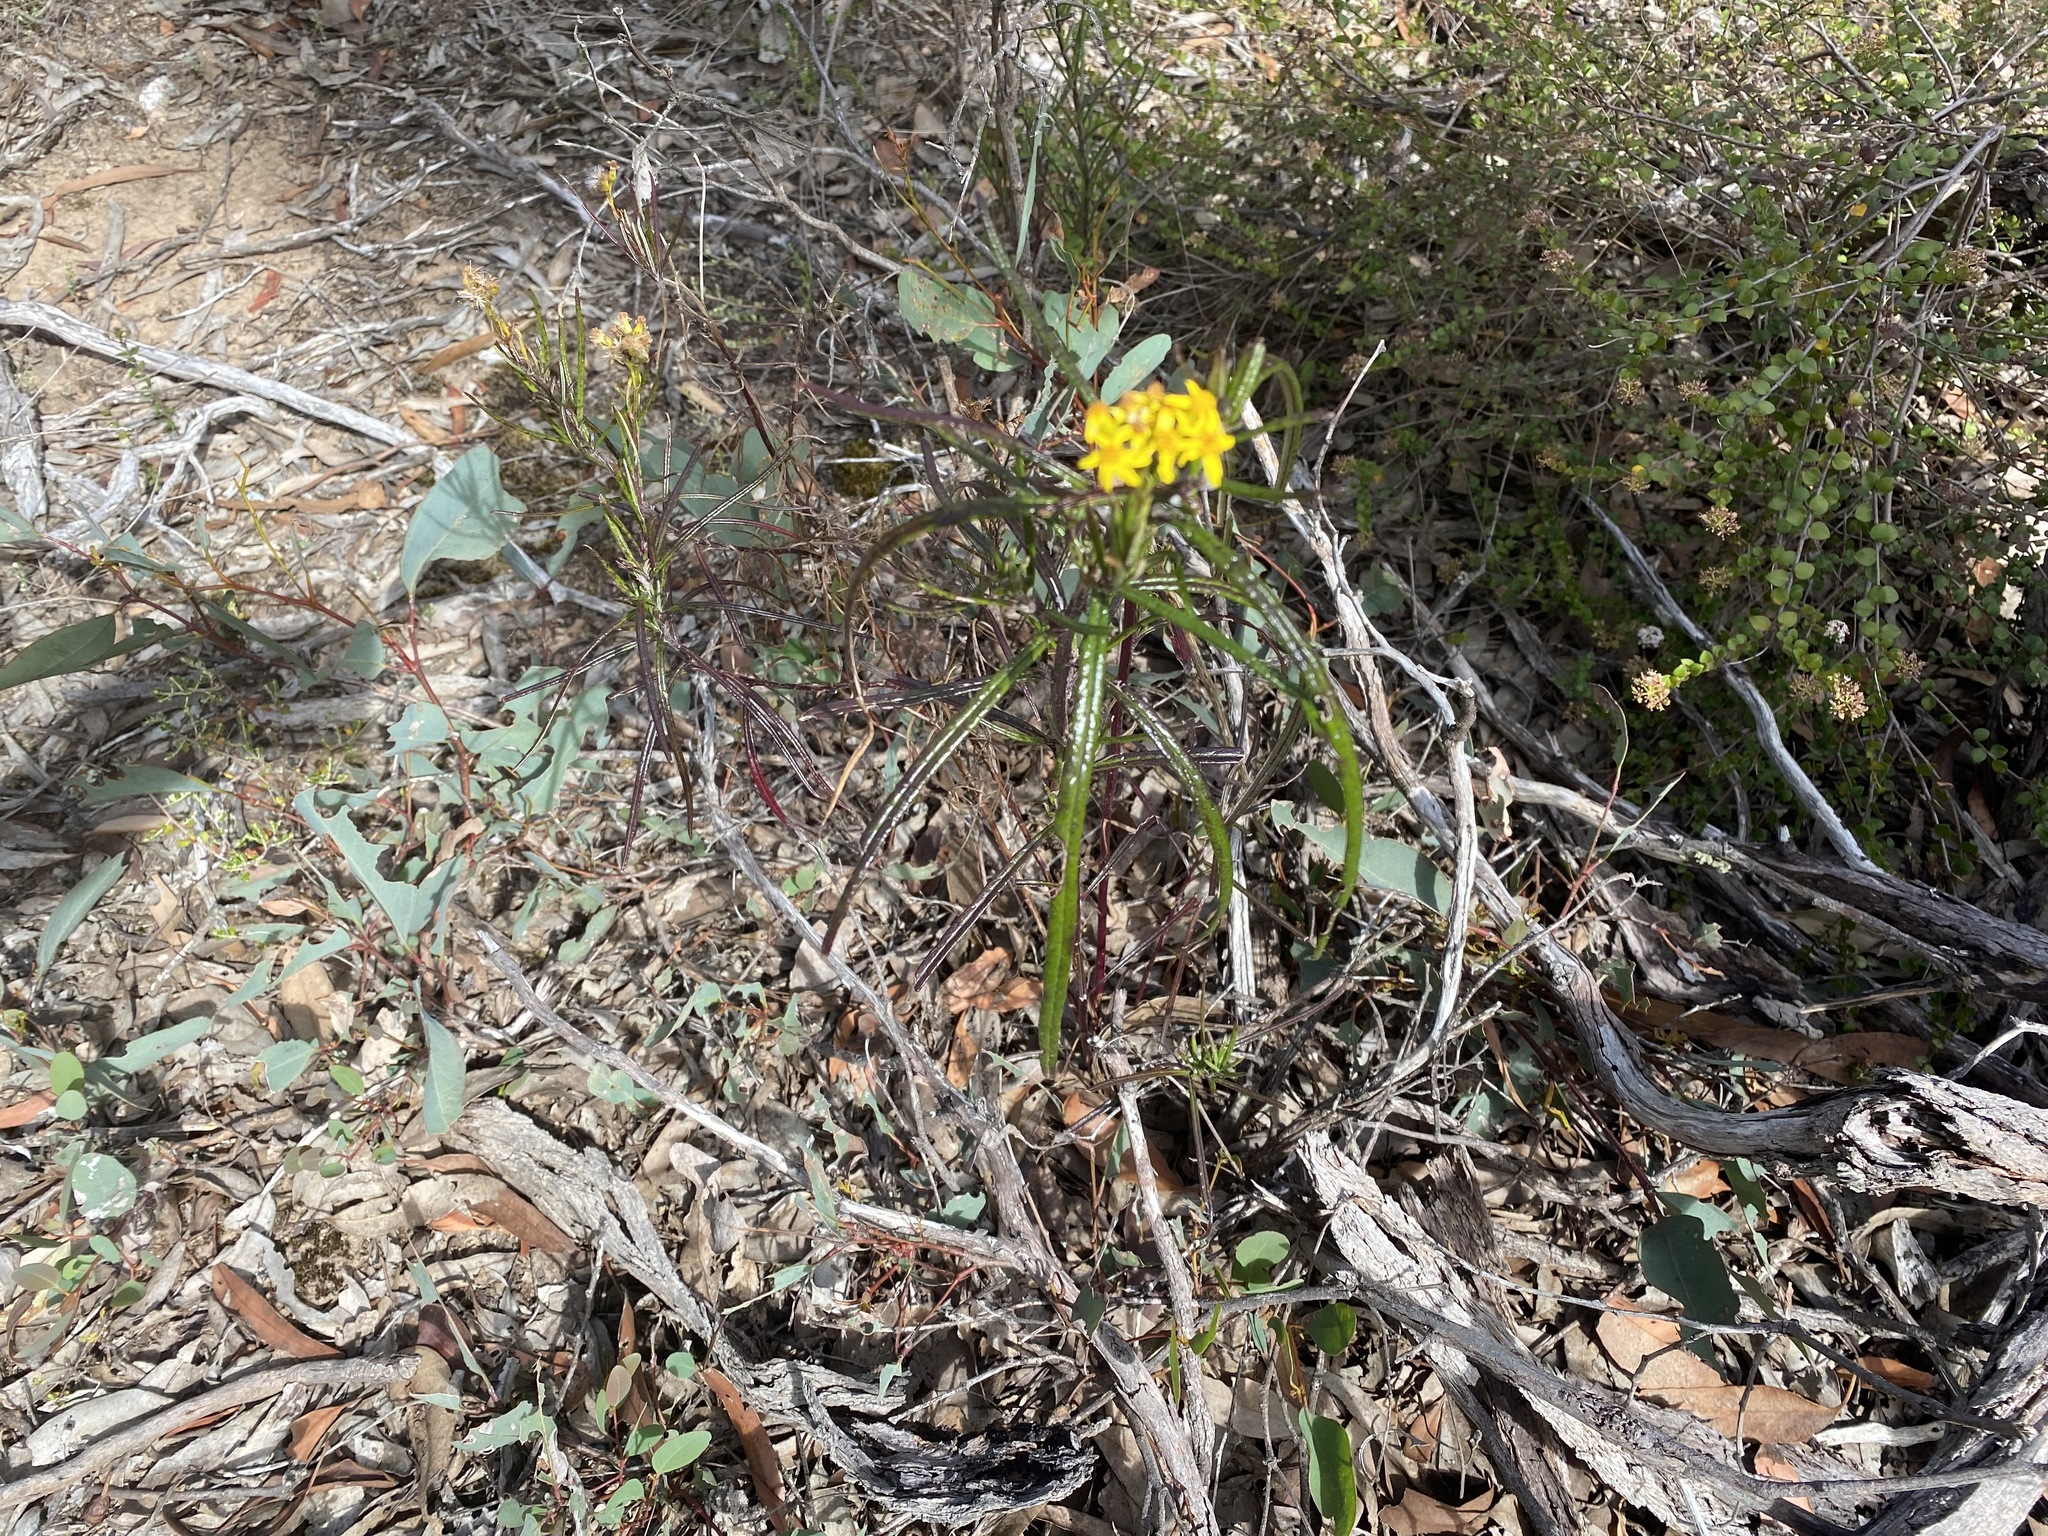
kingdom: Plantae
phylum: Tracheophyta
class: Magnoliopsida
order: Asterales
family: Asteraceae
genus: Senecio
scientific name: Senecio linearifolius
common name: Fireweed groundsel
